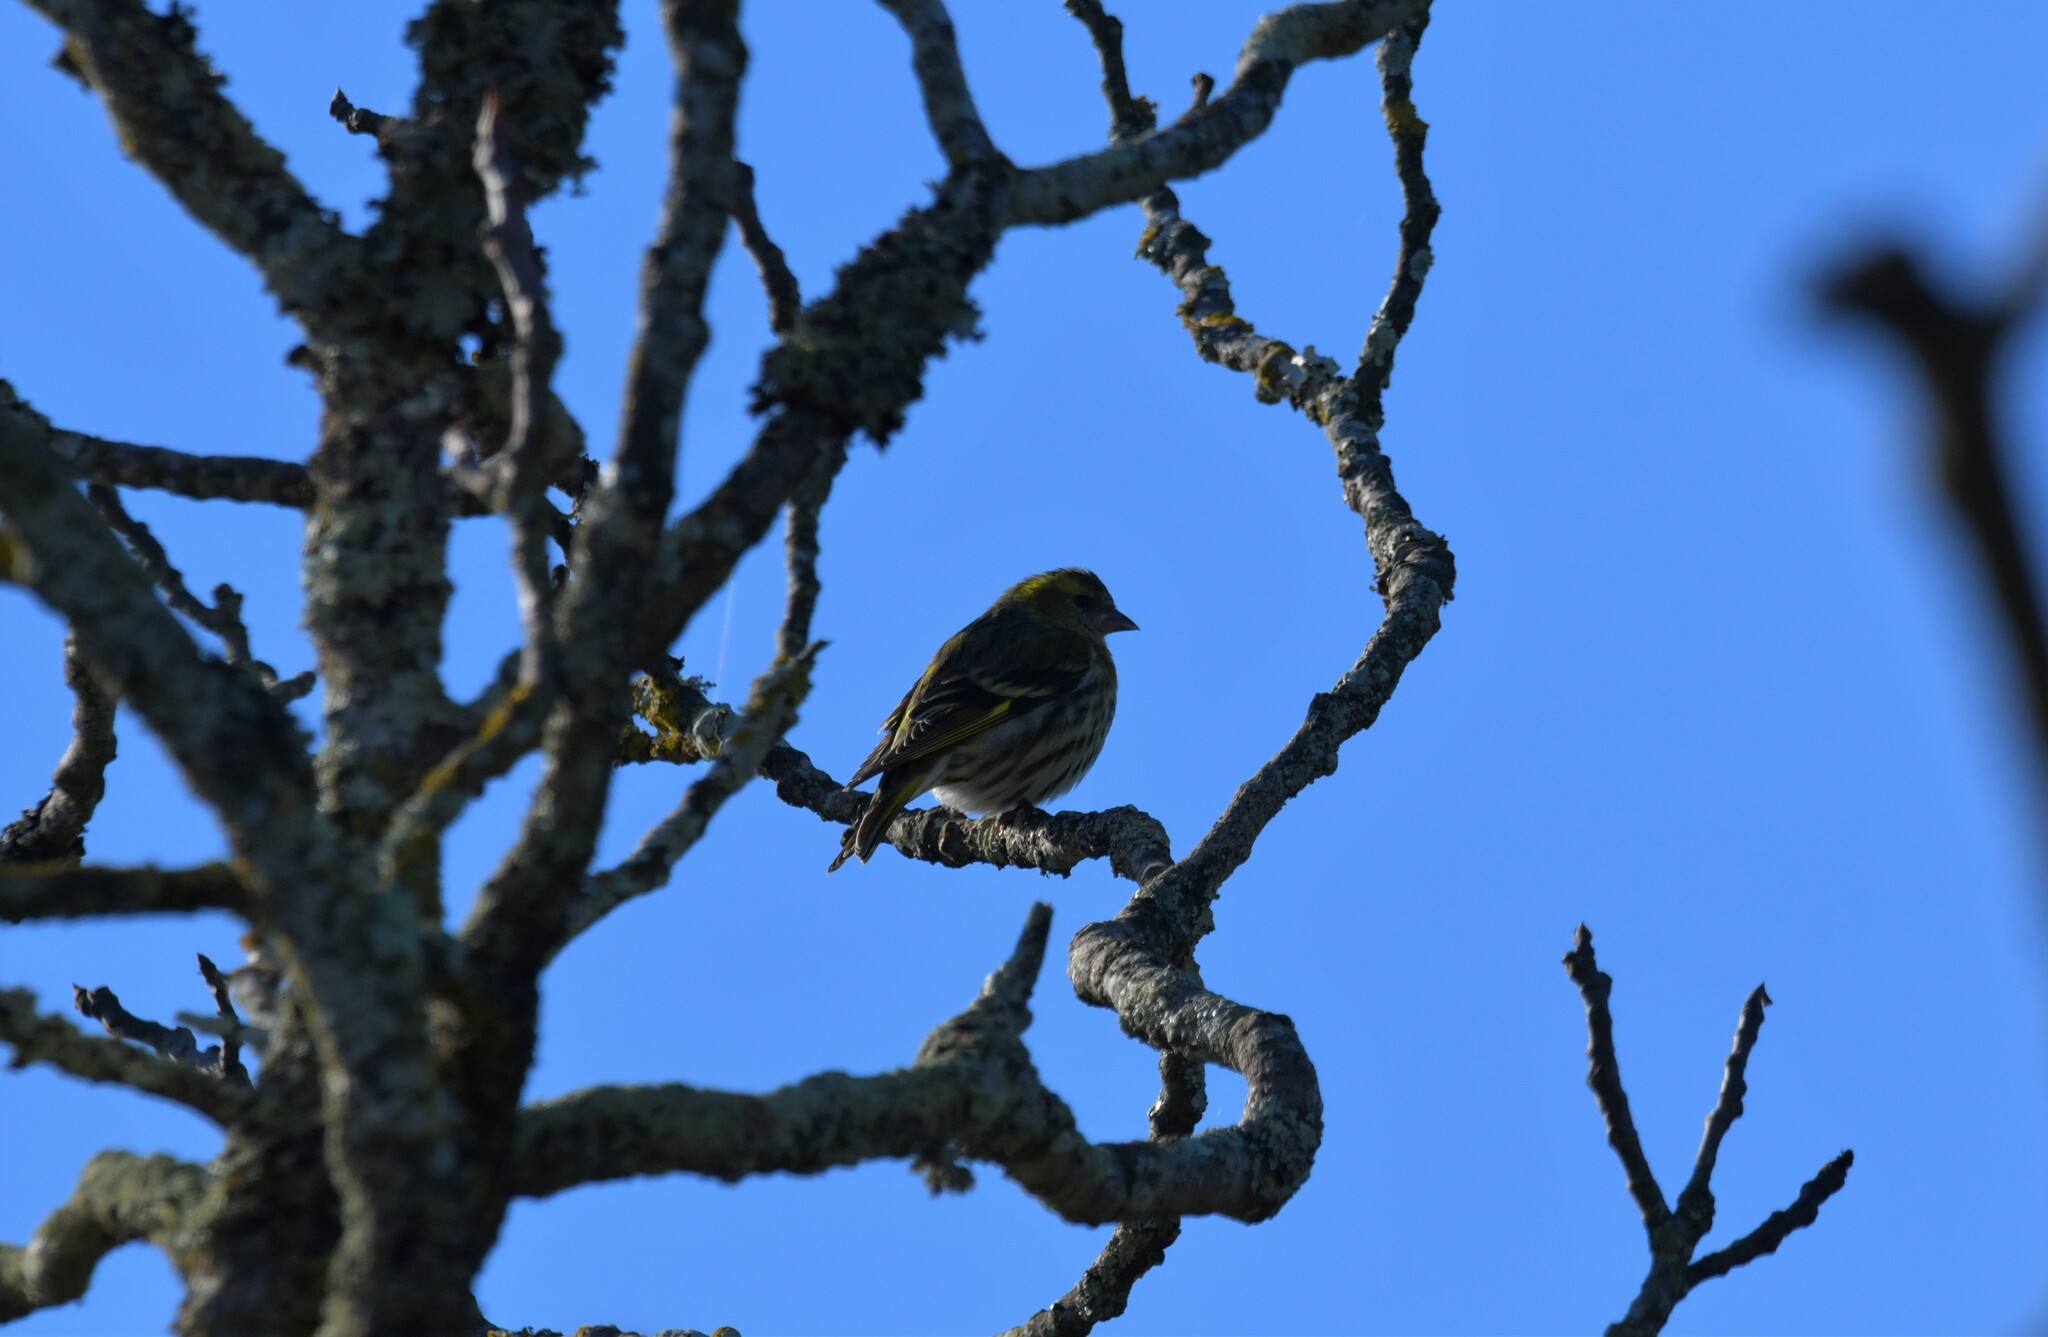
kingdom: Animalia
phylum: Chordata
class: Aves
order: Passeriformes
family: Fringillidae
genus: Spinus
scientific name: Spinus spinus
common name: Eurasian siskin
